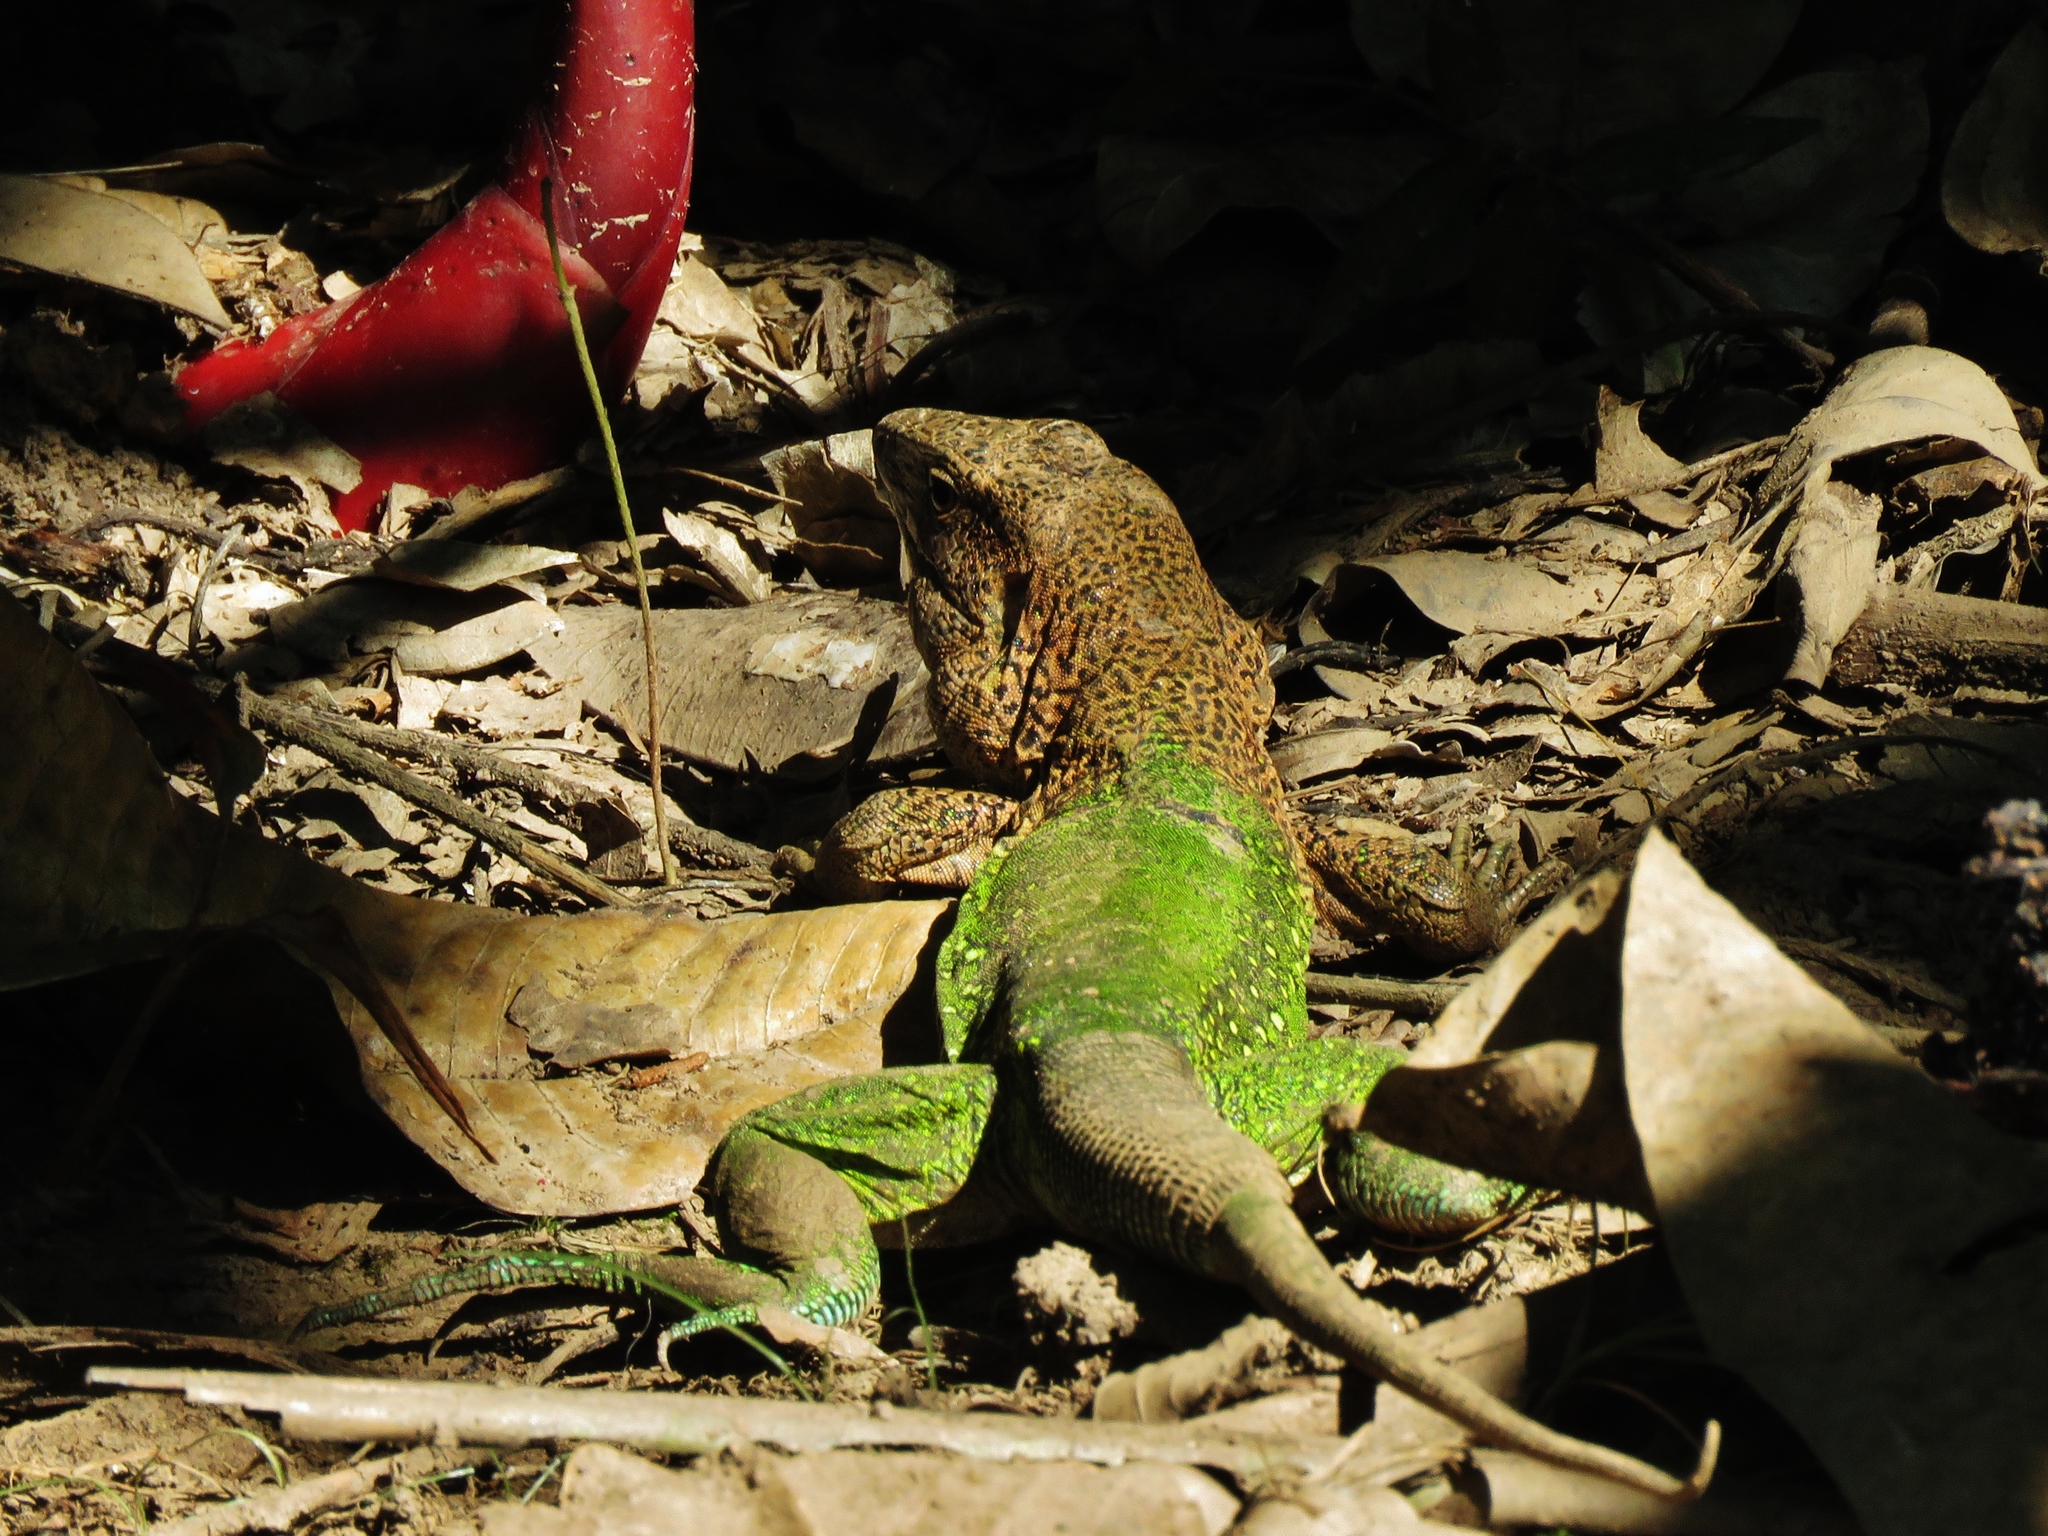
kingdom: Animalia
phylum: Chordata
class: Squamata
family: Teiidae
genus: Ameiva
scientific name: Ameiva ameiva
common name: Giant ameiva
